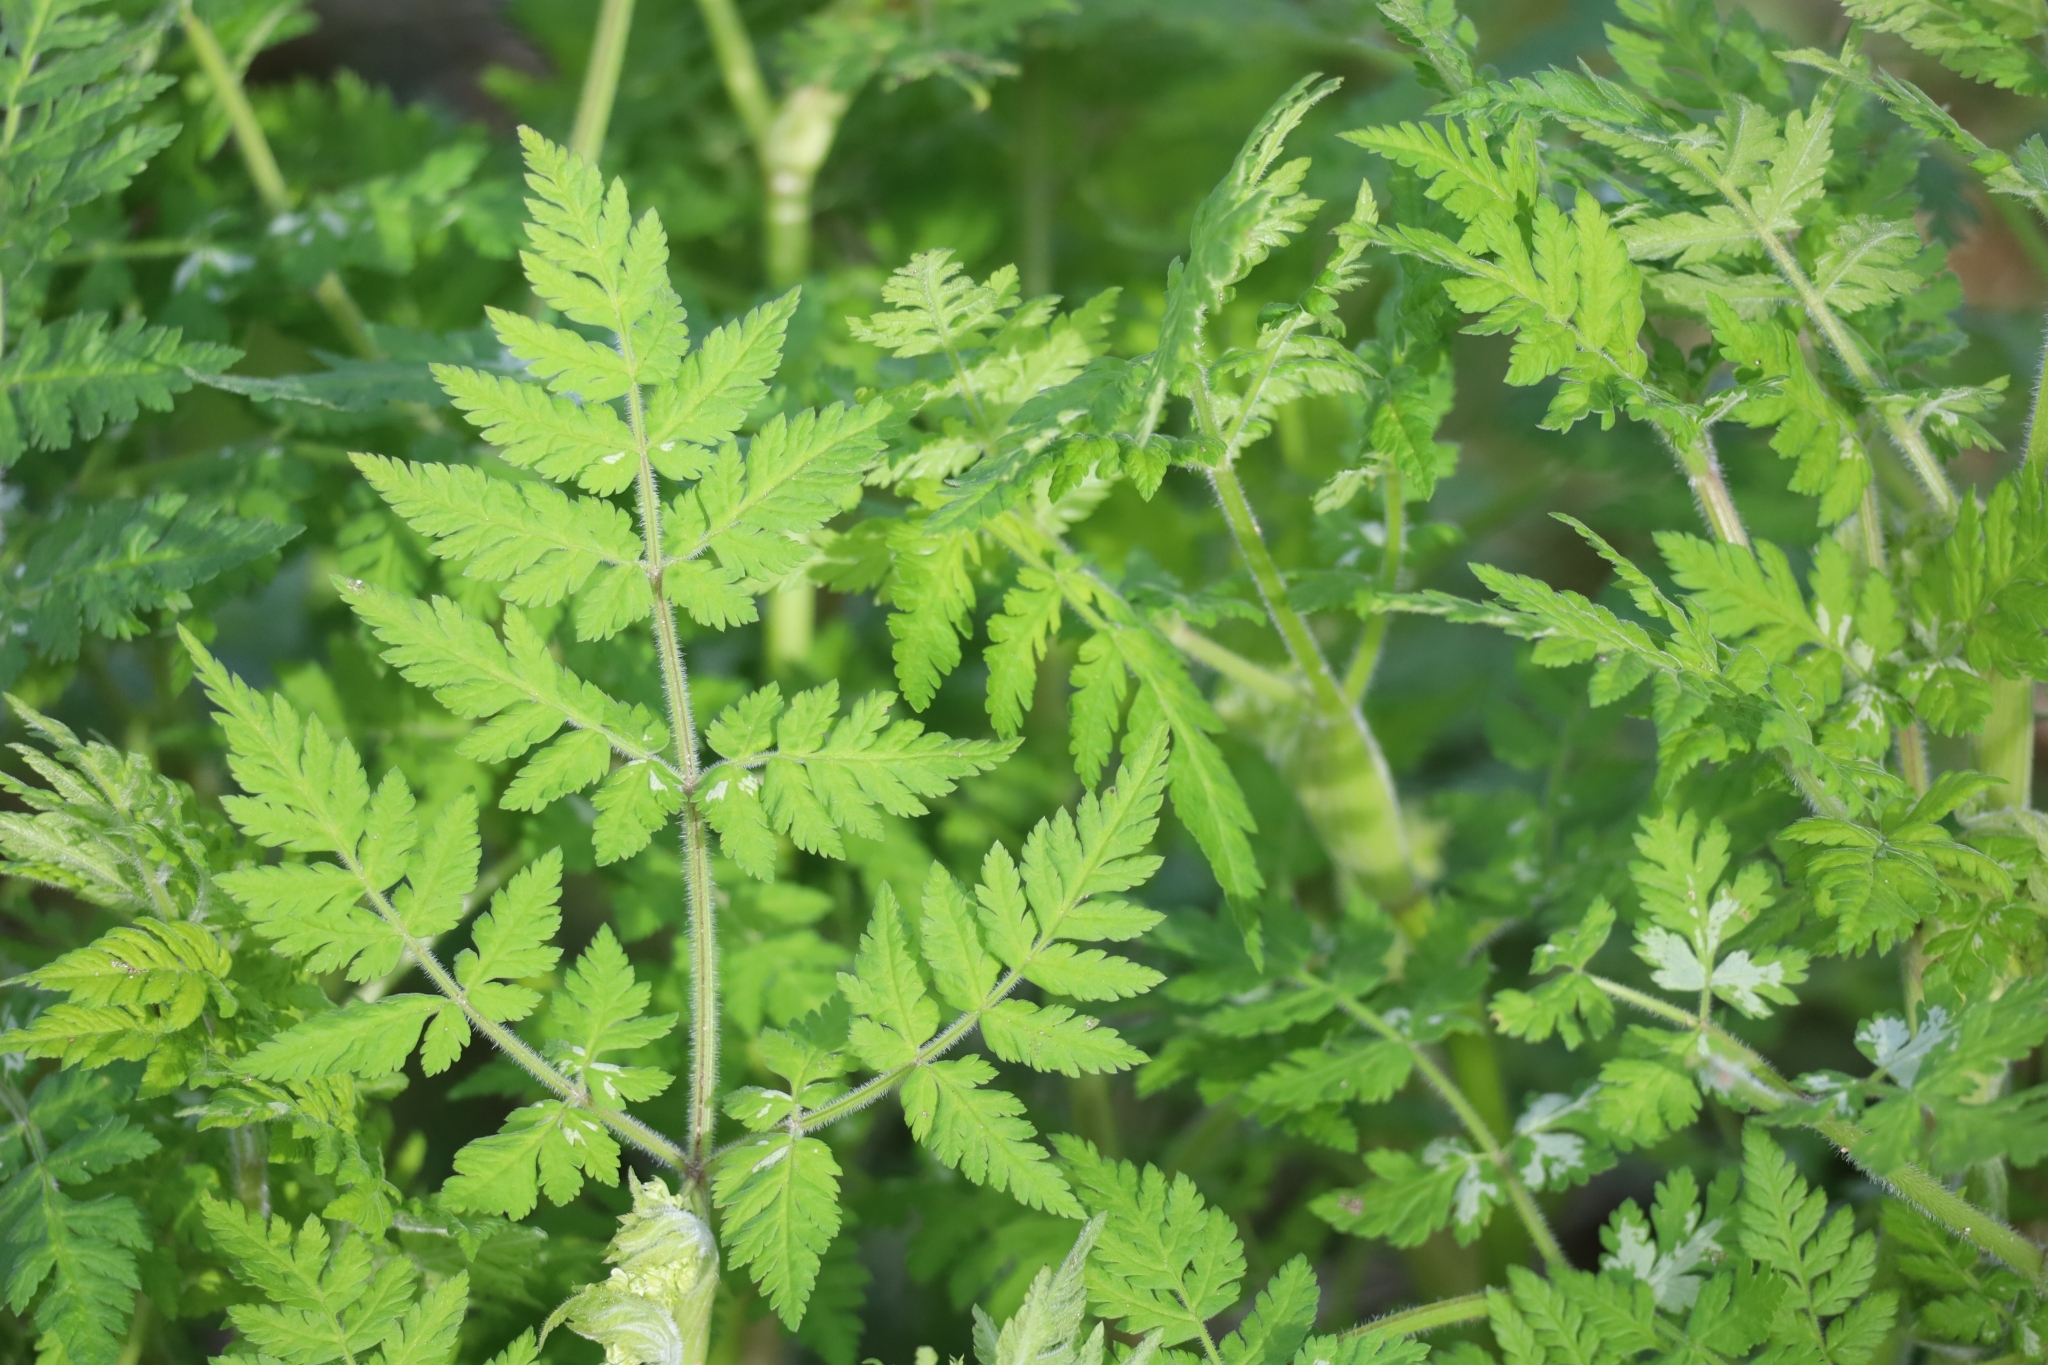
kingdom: Plantae
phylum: Tracheophyta
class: Magnoliopsida
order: Apiales
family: Apiaceae
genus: Myrrhis
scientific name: Myrrhis odorata
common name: Sweet cicely
